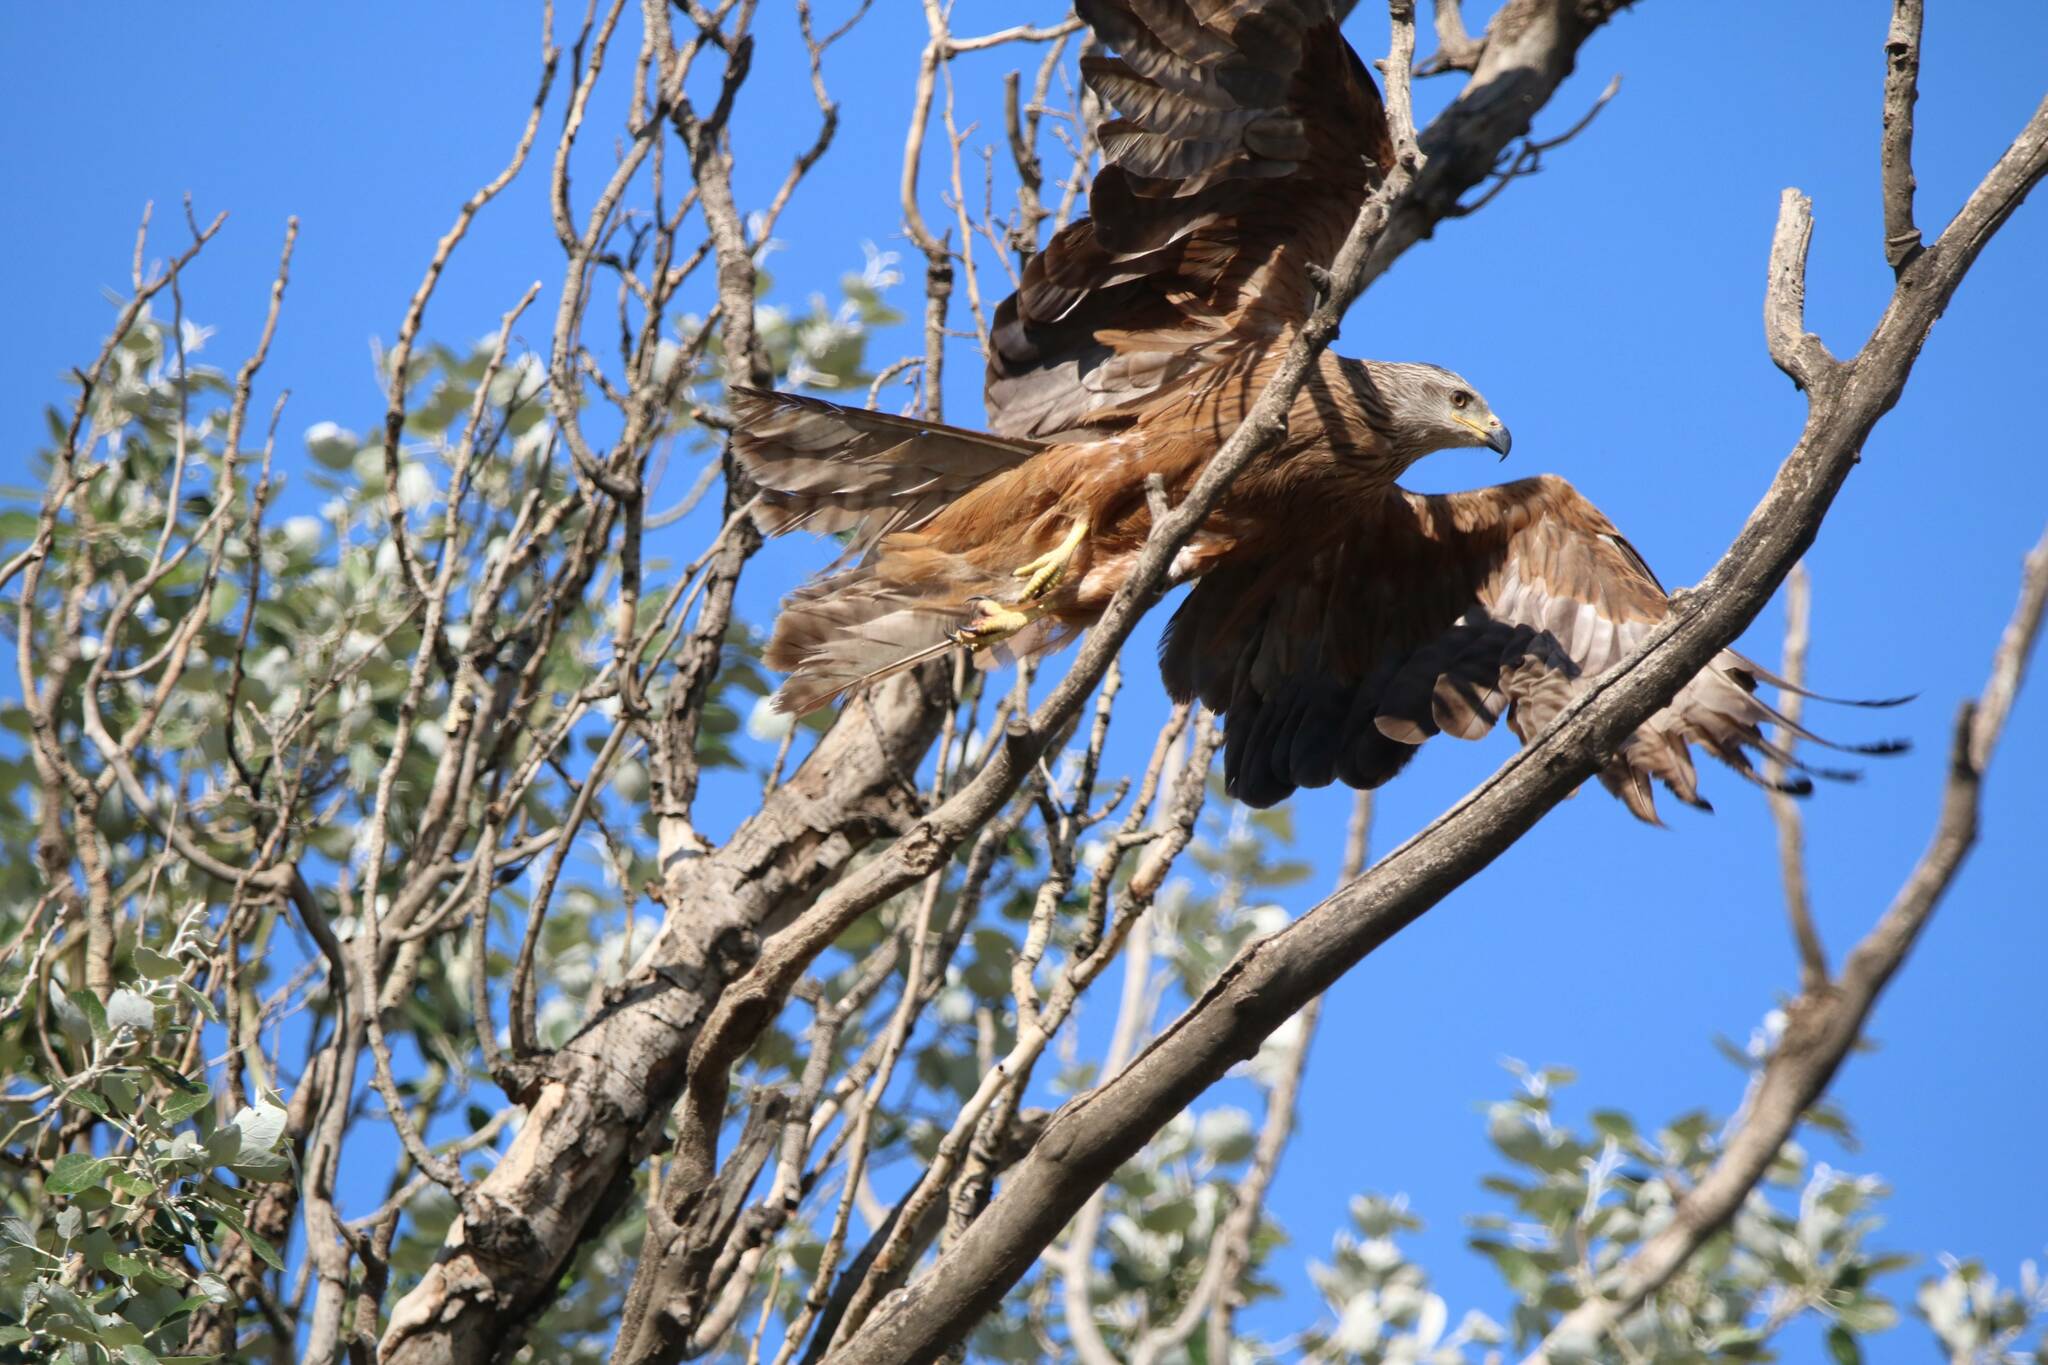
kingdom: Animalia
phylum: Chordata
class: Aves
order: Accipitriformes
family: Accipitridae
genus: Milvus
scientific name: Milvus migrans
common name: Black kite
